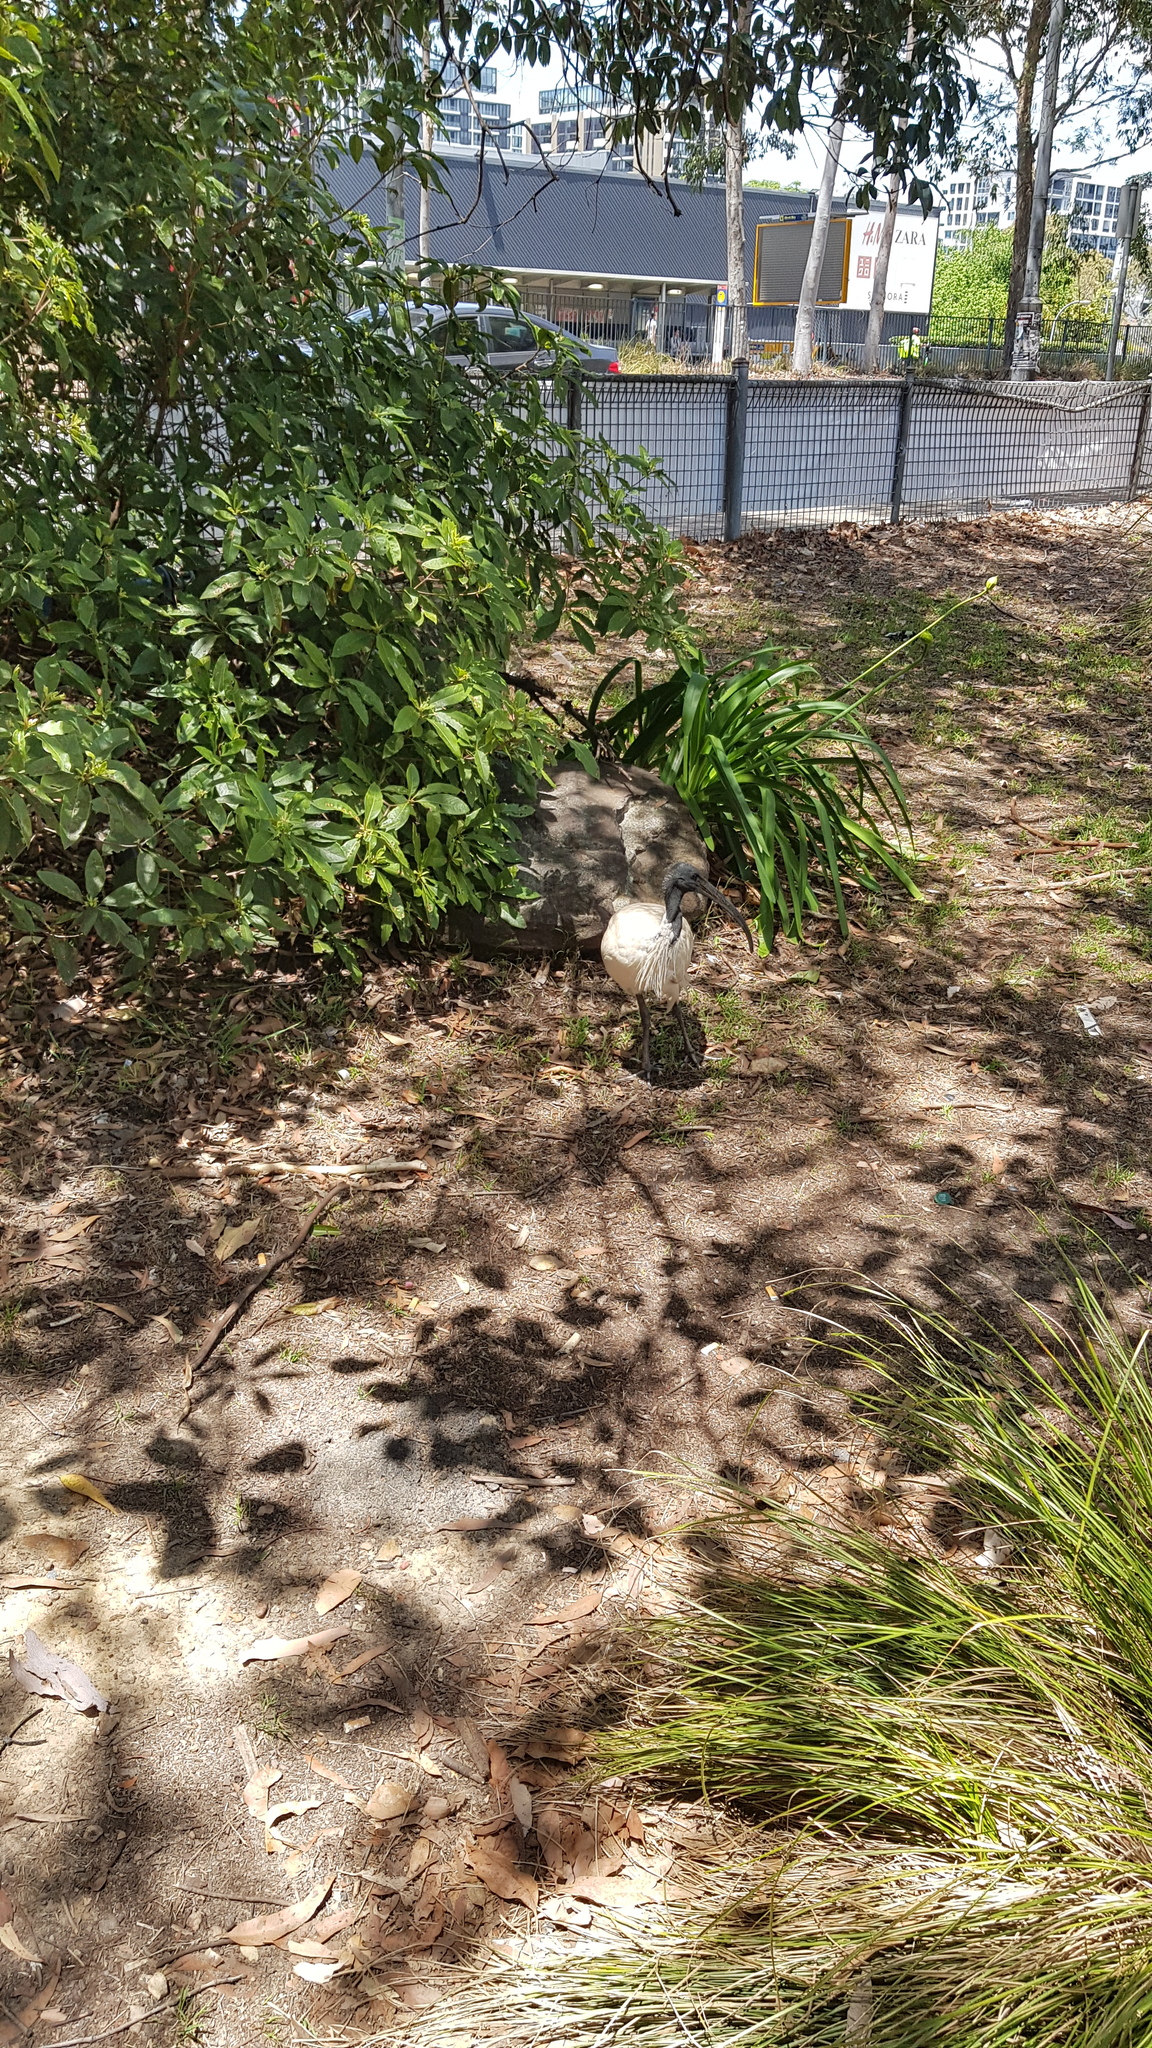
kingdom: Animalia
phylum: Chordata
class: Aves
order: Pelecaniformes
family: Threskiornithidae
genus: Threskiornis
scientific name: Threskiornis molucca
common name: Australian white ibis
